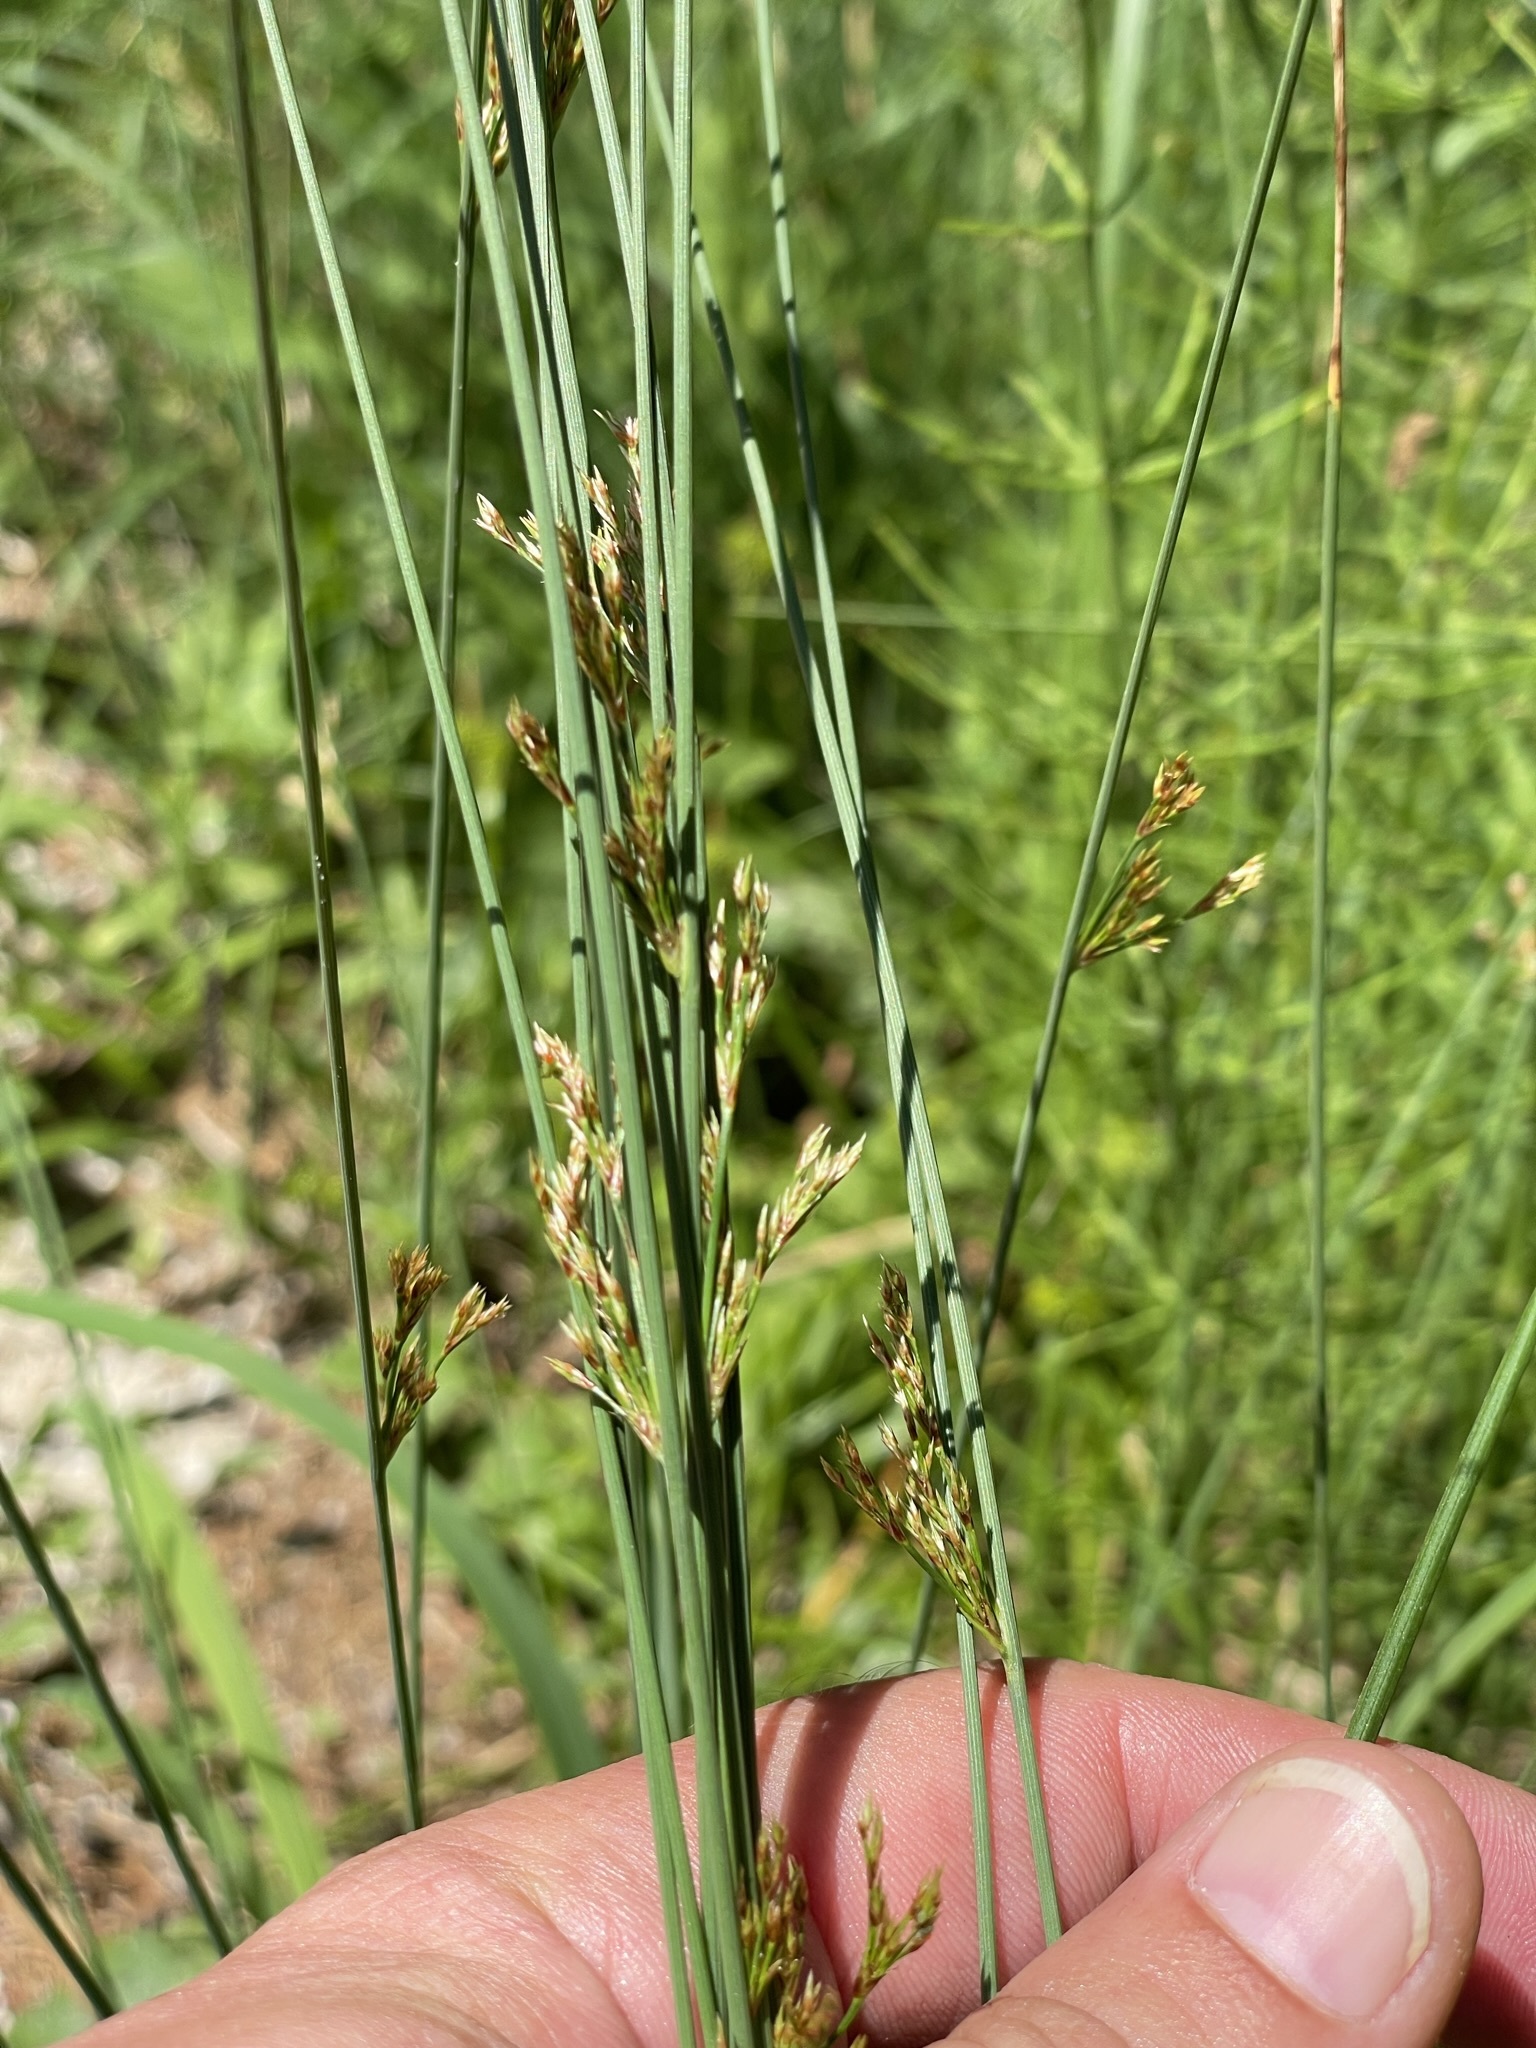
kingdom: Plantae
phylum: Tracheophyta
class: Liliopsida
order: Poales
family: Juncaceae
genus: Juncus
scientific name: Juncus inflexus
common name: Hard rush
